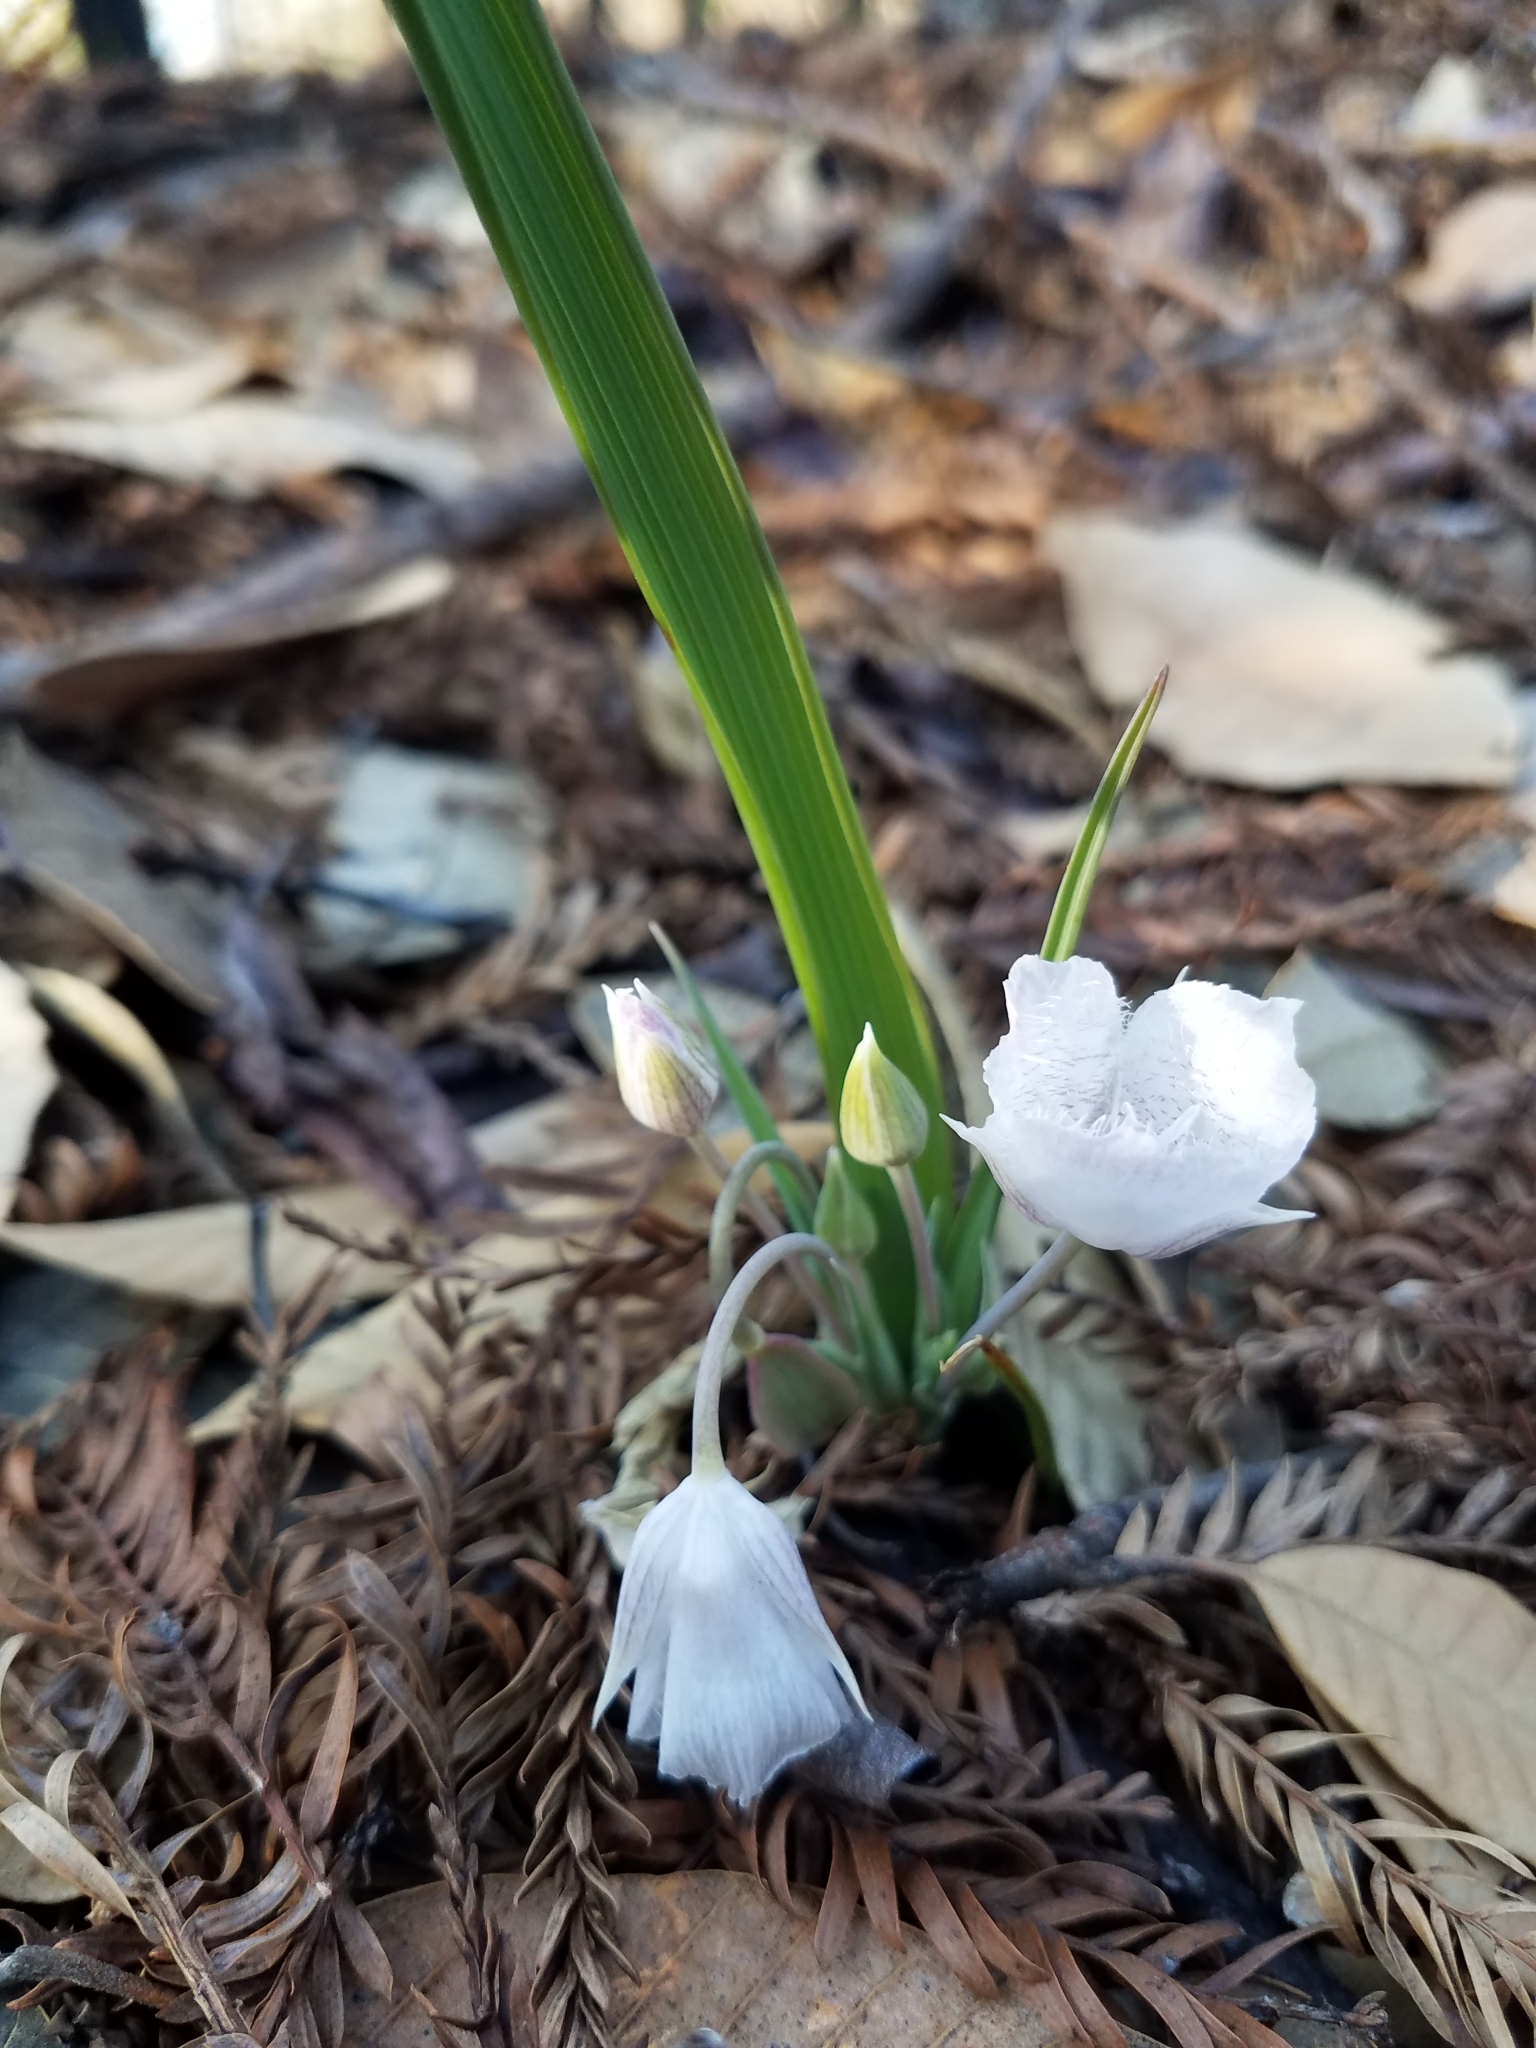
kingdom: Plantae
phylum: Tracheophyta
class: Liliopsida
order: Liliales
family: Liliaceae
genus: Calochortus
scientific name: Calochortus tolmiei
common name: Pussy-ears
